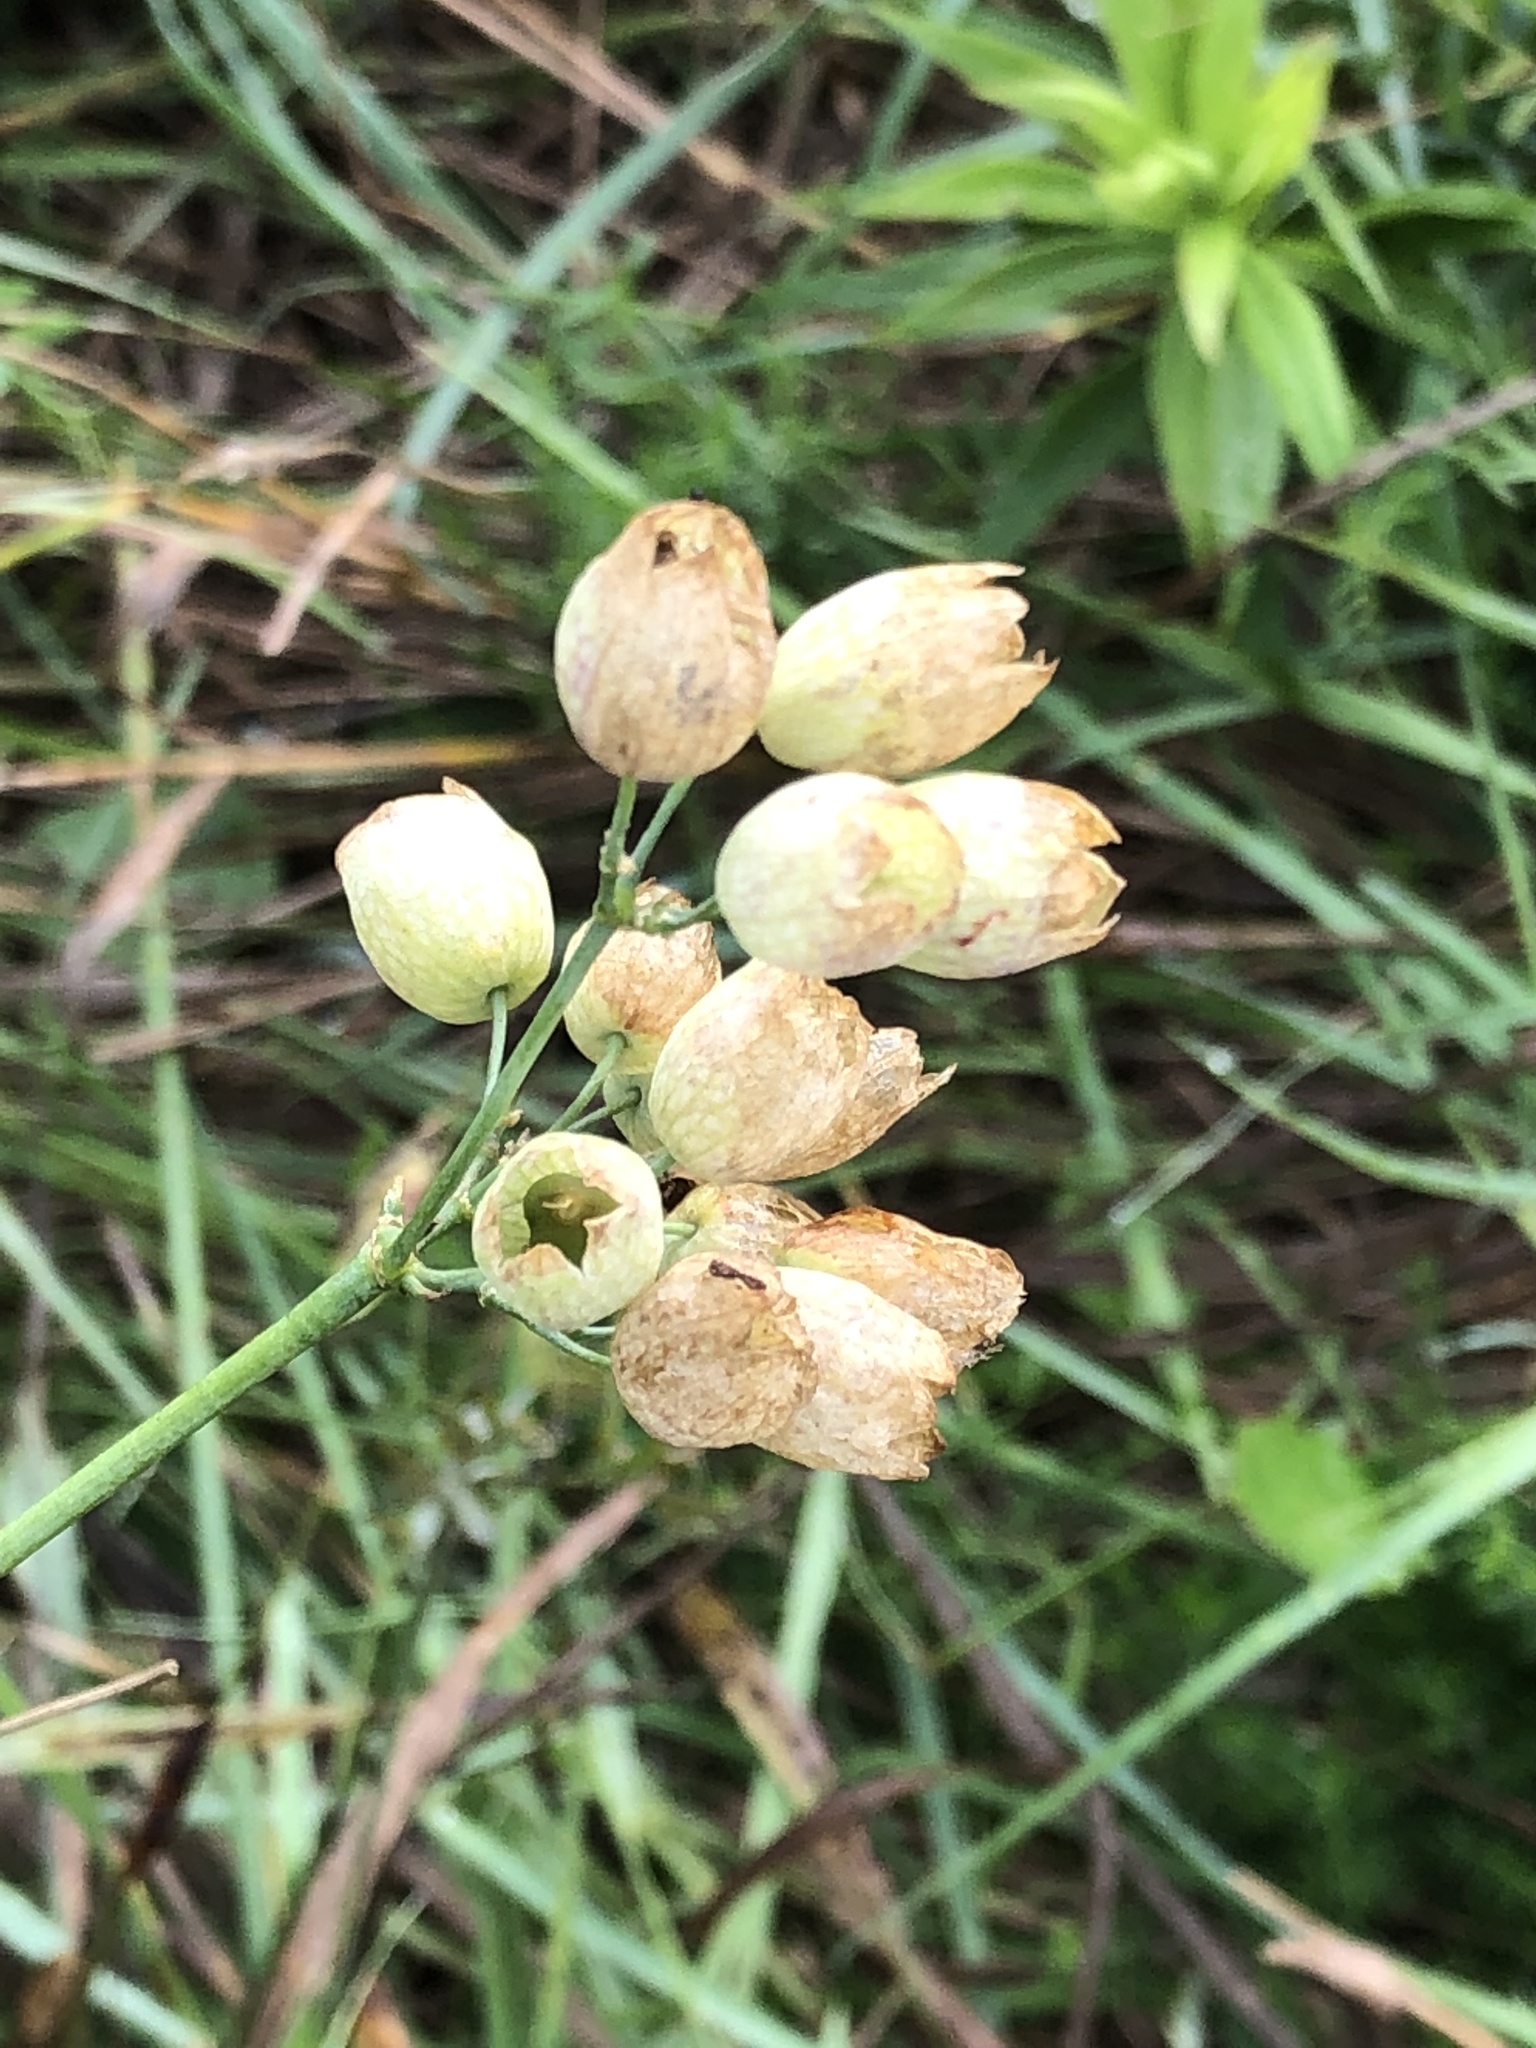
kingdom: Plantae
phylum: Tracheophyta
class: Magnoliopsida
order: Caryophyllales
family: Caryophyllaceae
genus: Silene
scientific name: Silene vulgaris
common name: Bladder campion
